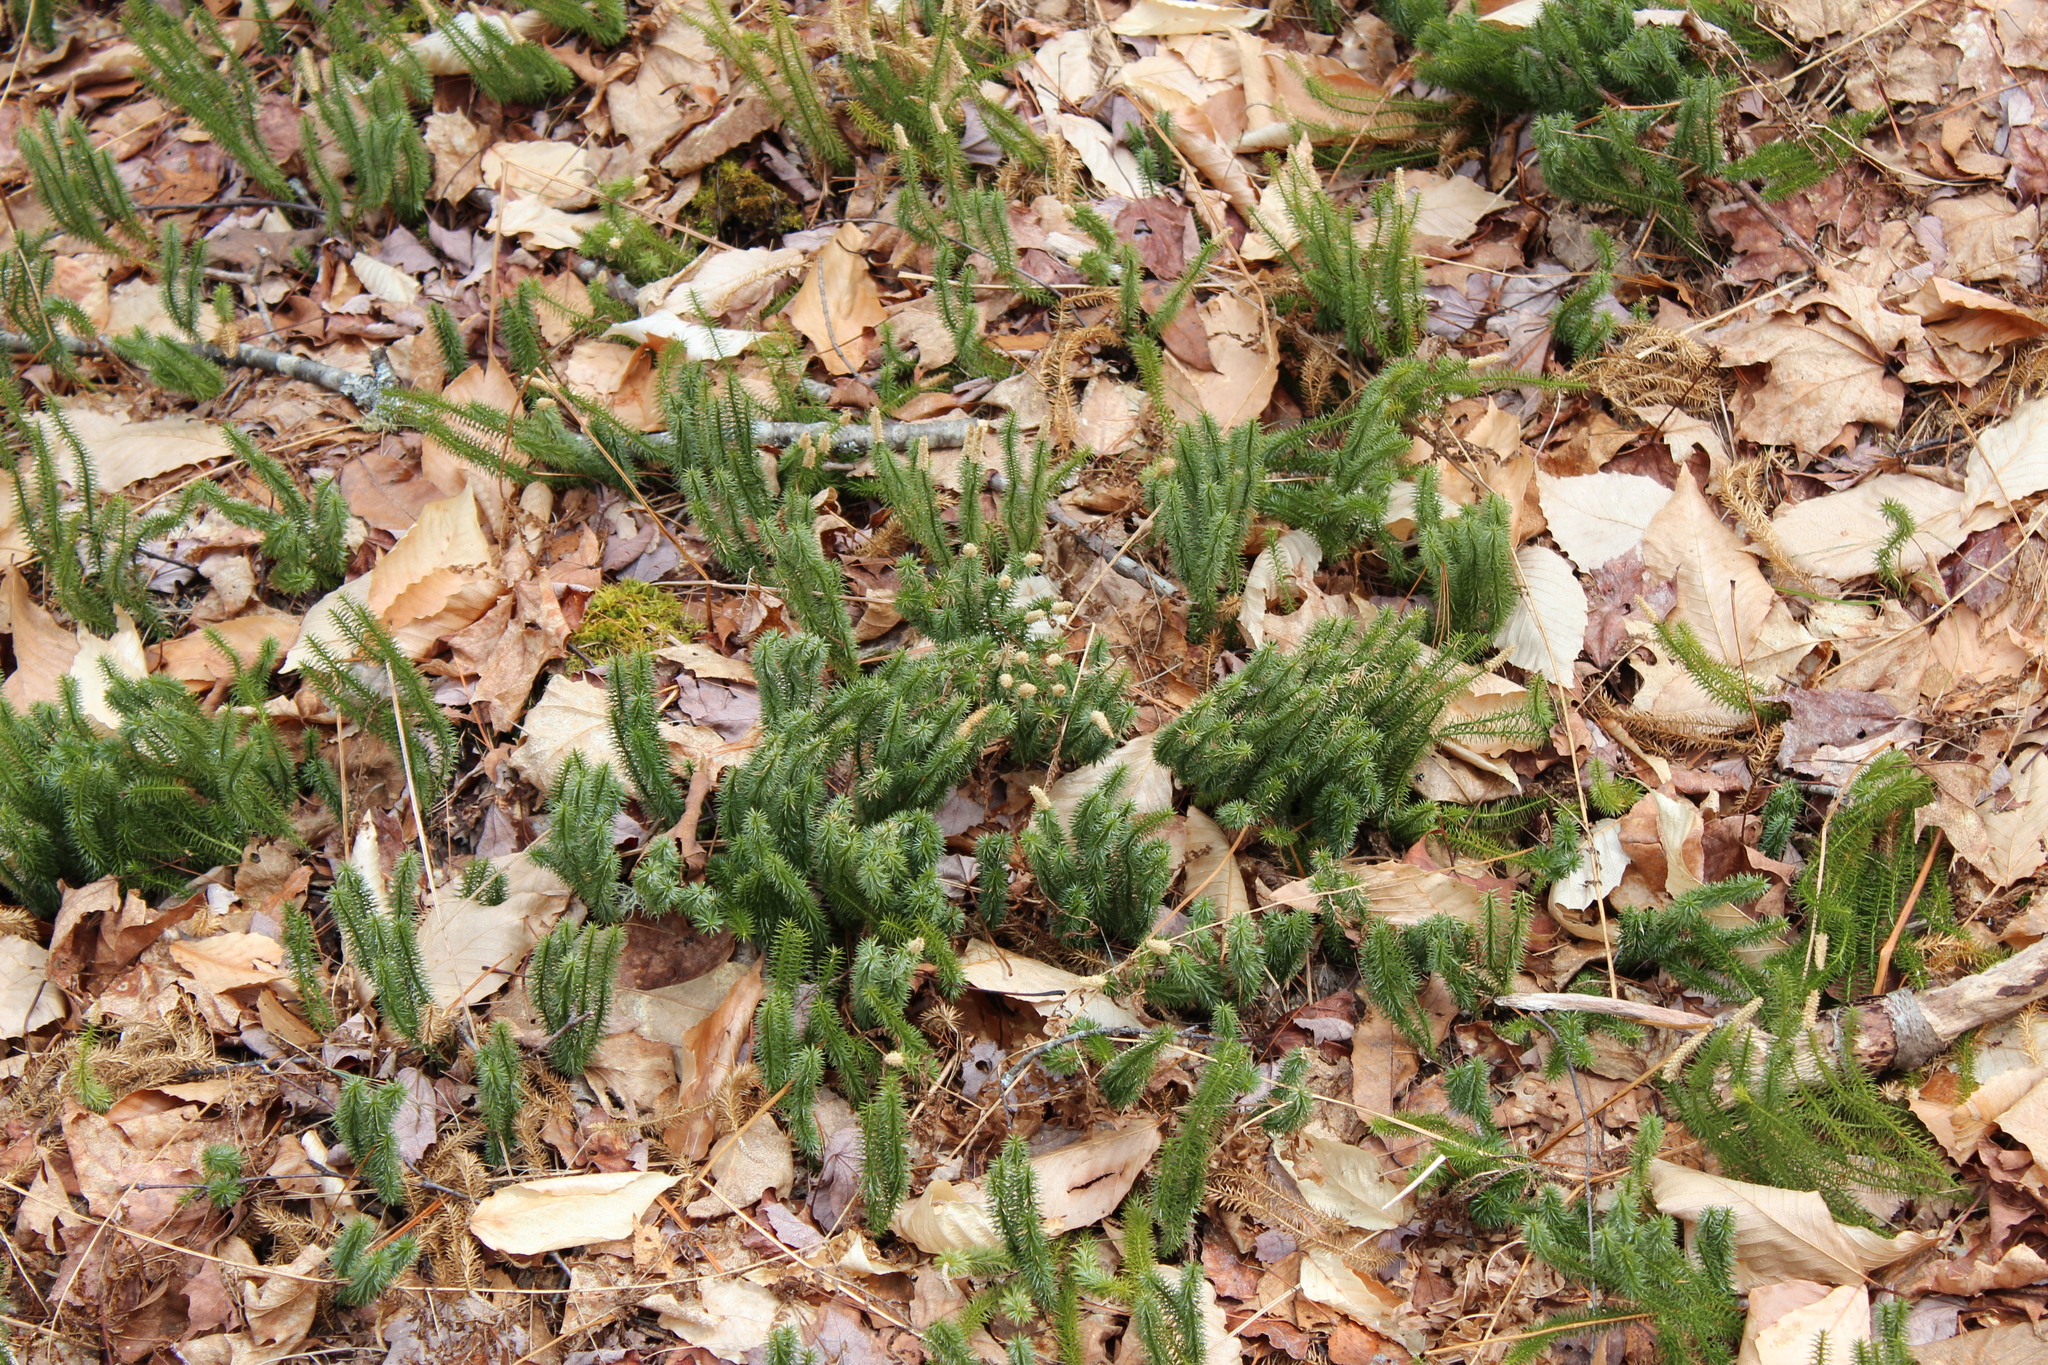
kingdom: Plantae
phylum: Tracheophyta
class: Lycopodiopsida
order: Lycopodiales
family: Lycopodiaceae
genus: Spinulum
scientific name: Spinulum annotinum
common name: Interrupted club-moss
